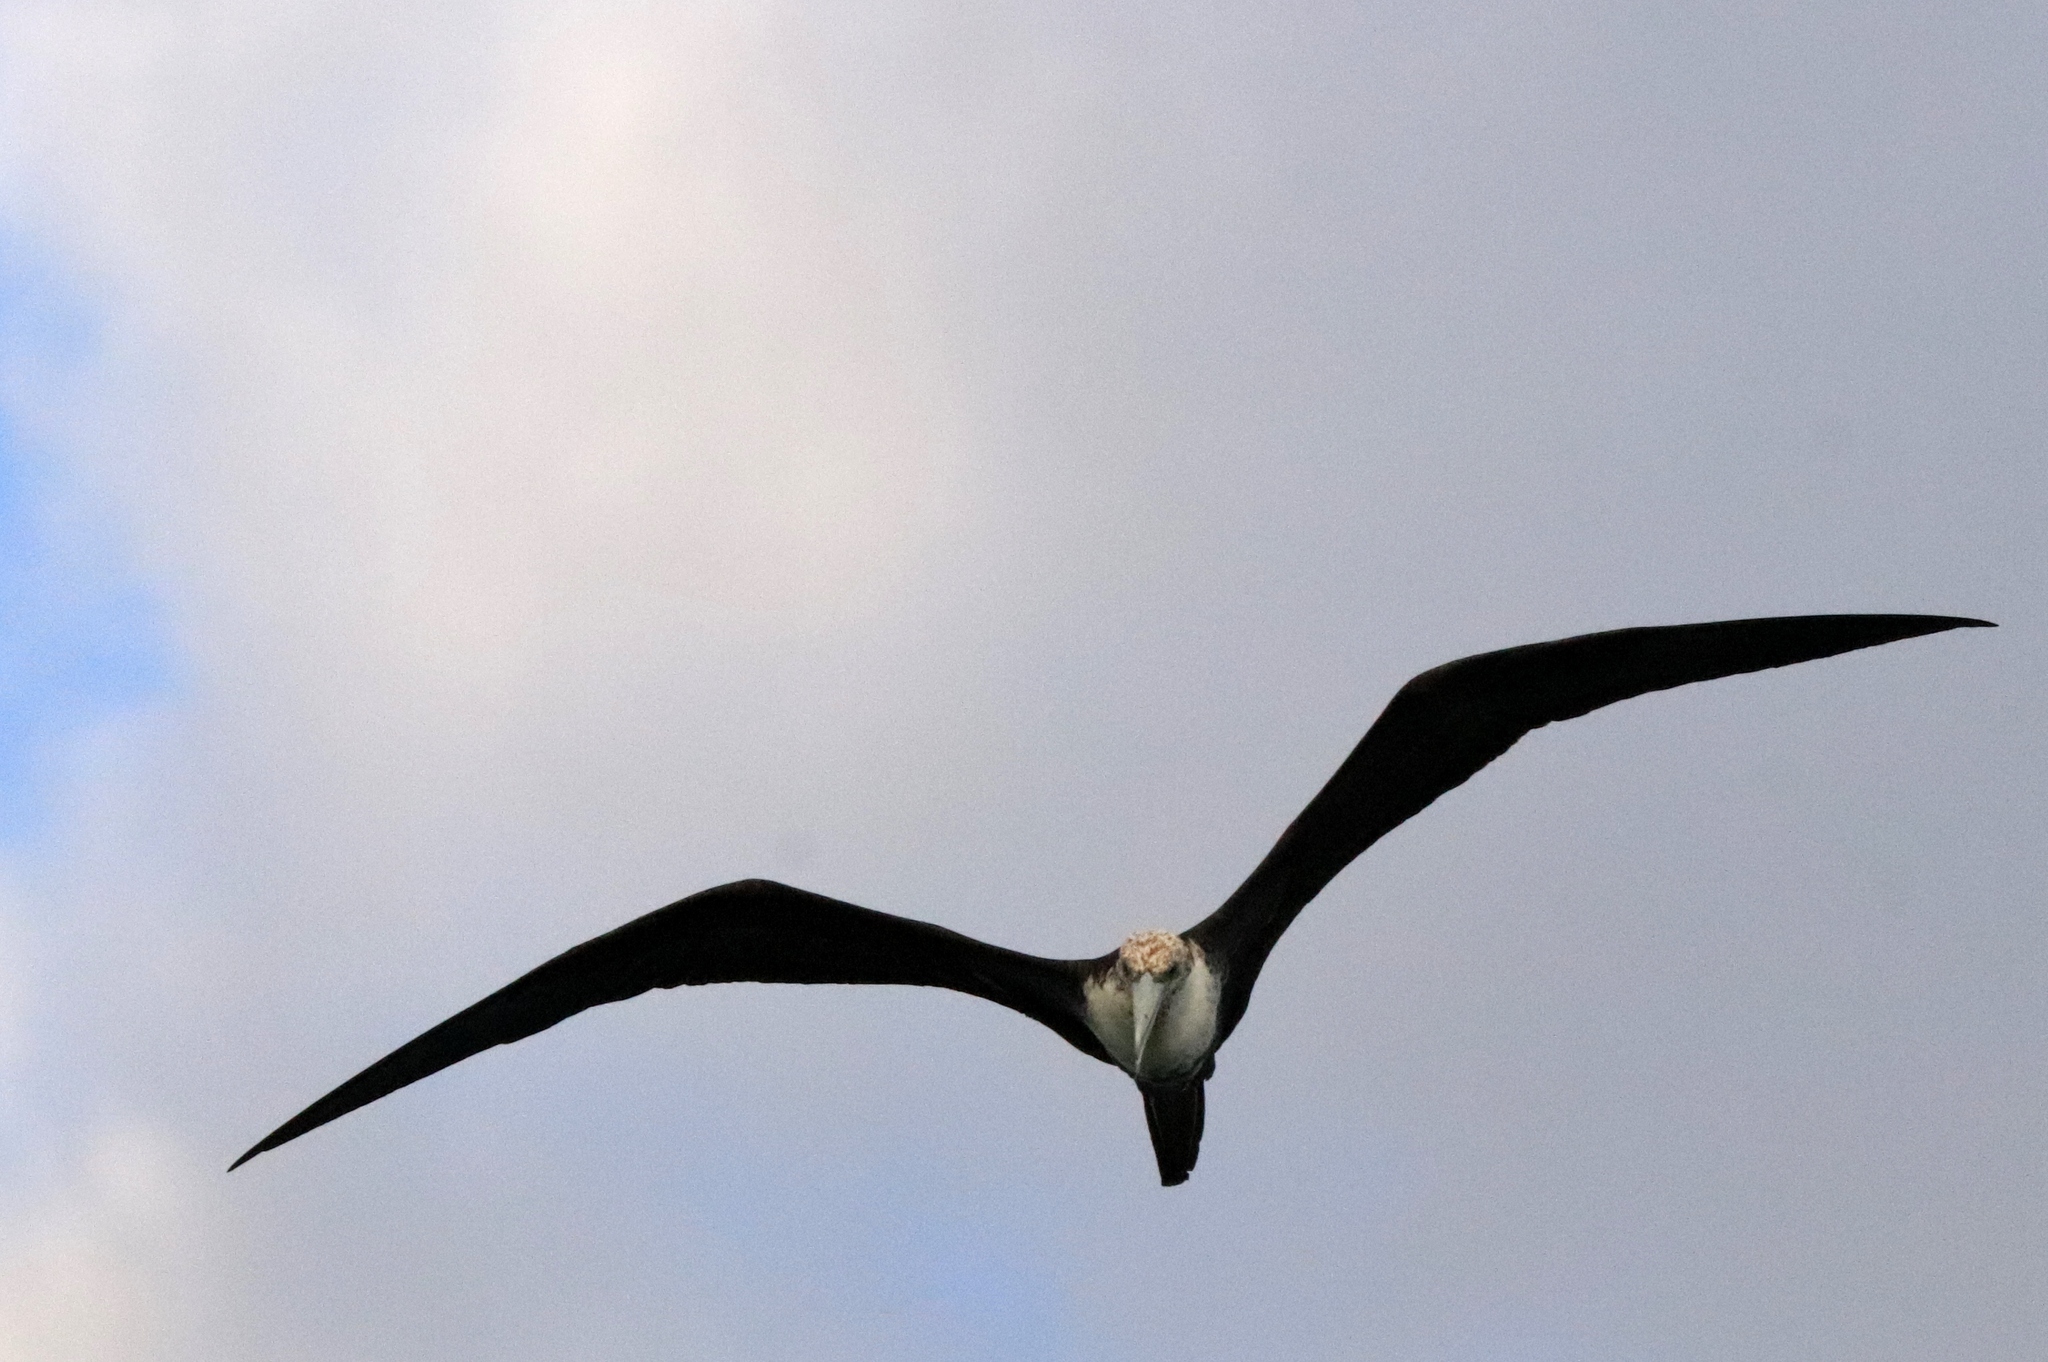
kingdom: Animalia
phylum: Chordata
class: Aves
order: Suliformes
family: Fregatidae
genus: Fregata
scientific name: Fregata magnificens
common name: Magnificent frigatebird
